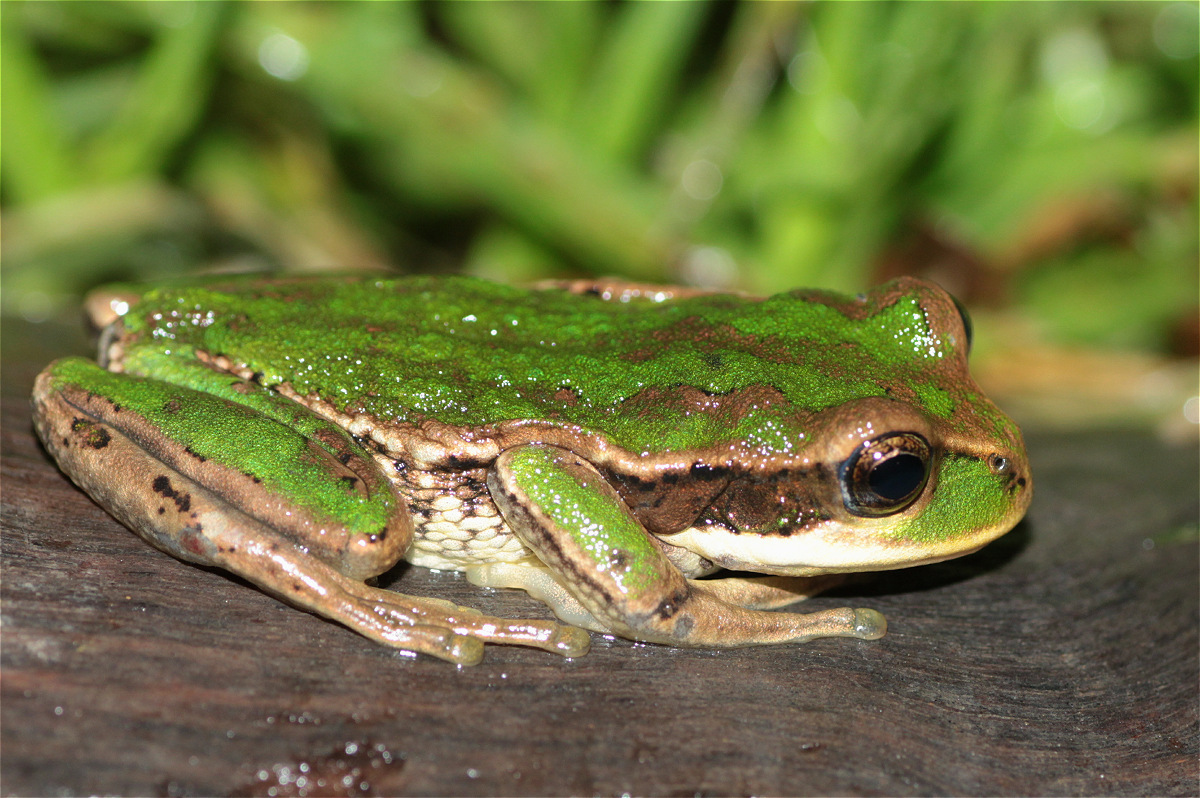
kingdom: Animalia
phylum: Chordata
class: Amphibia
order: Anura
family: Hemiphractidae
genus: Gastrotheca
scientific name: Gastrotheca cuencana
